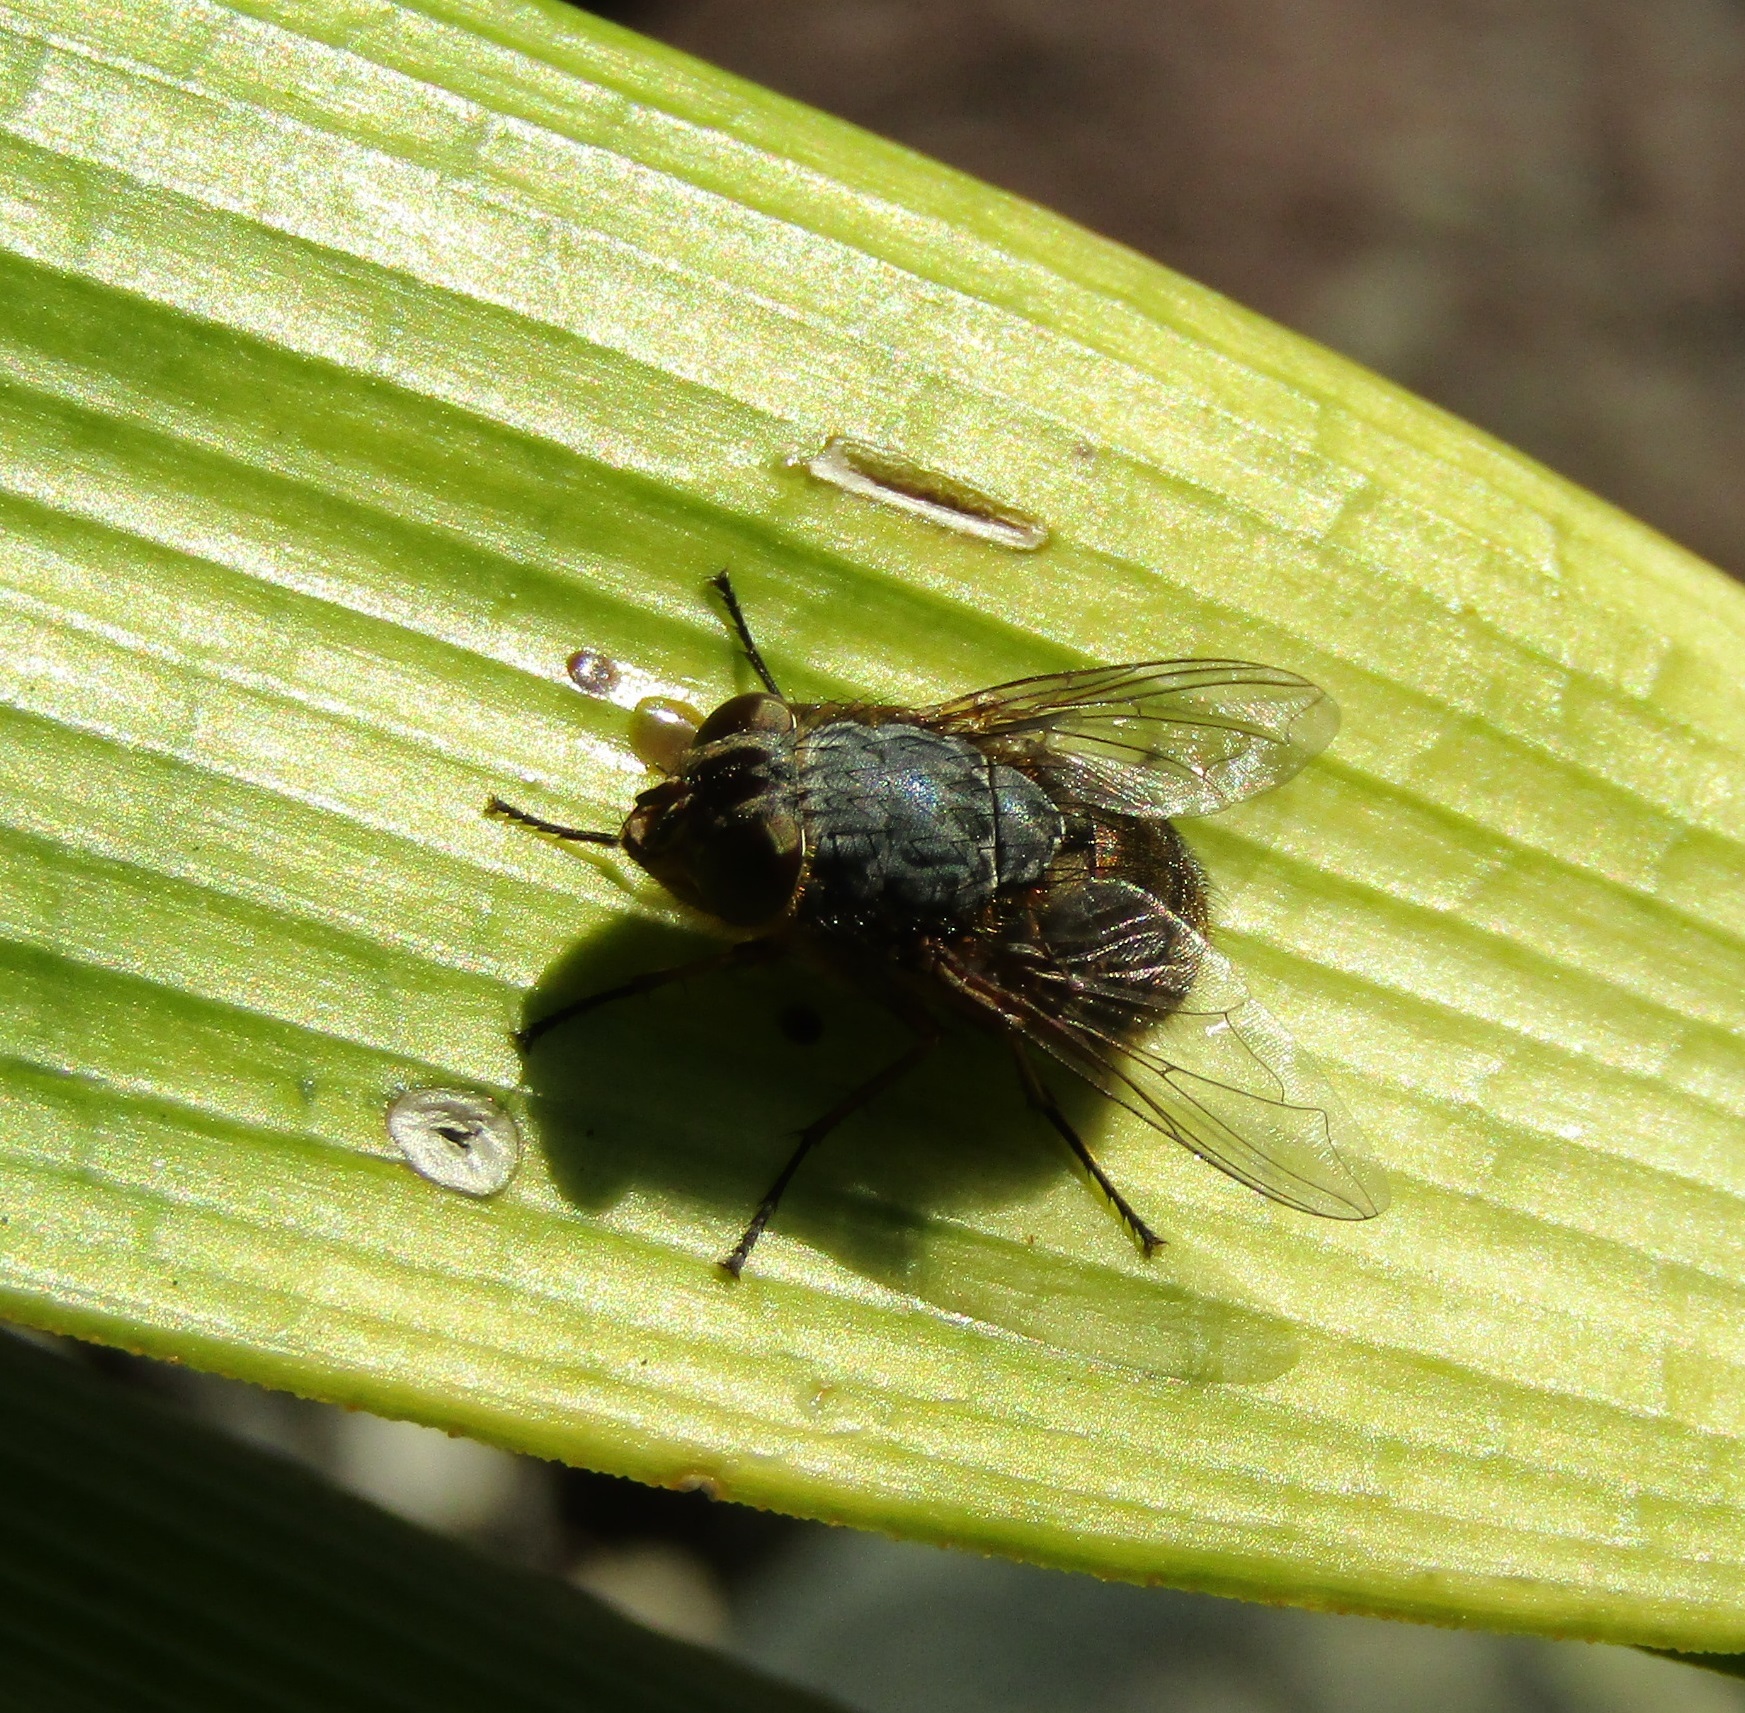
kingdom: Animalia
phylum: Arthropoda
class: Insecta
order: Diptera
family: Calliphoridae
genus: Calliphora
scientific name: Calliphora stygia
